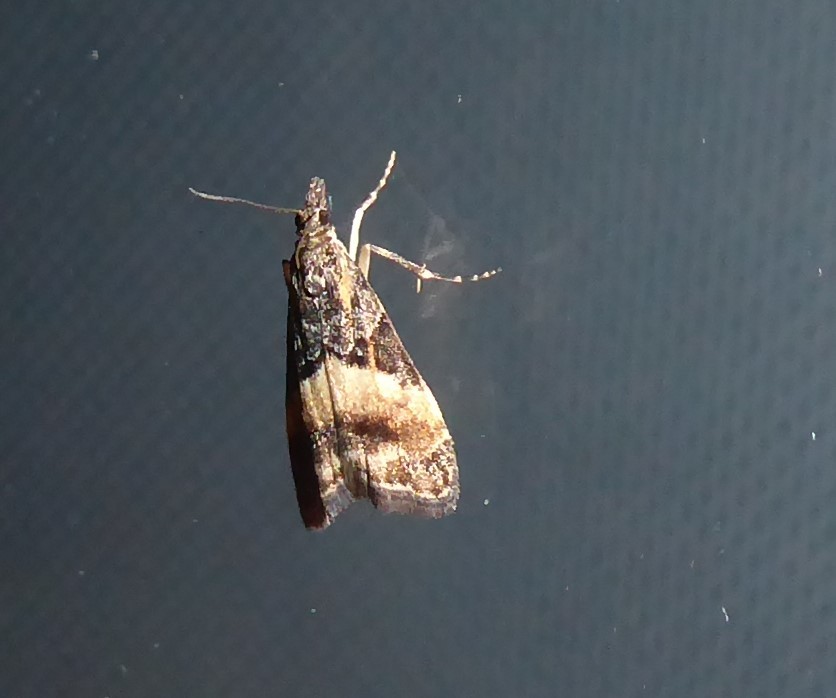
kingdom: Animalia
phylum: Arthropoda
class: Insecta
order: Lepidoptera
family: Crambidae
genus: Eudonia
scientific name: Eudonia chlamydota
